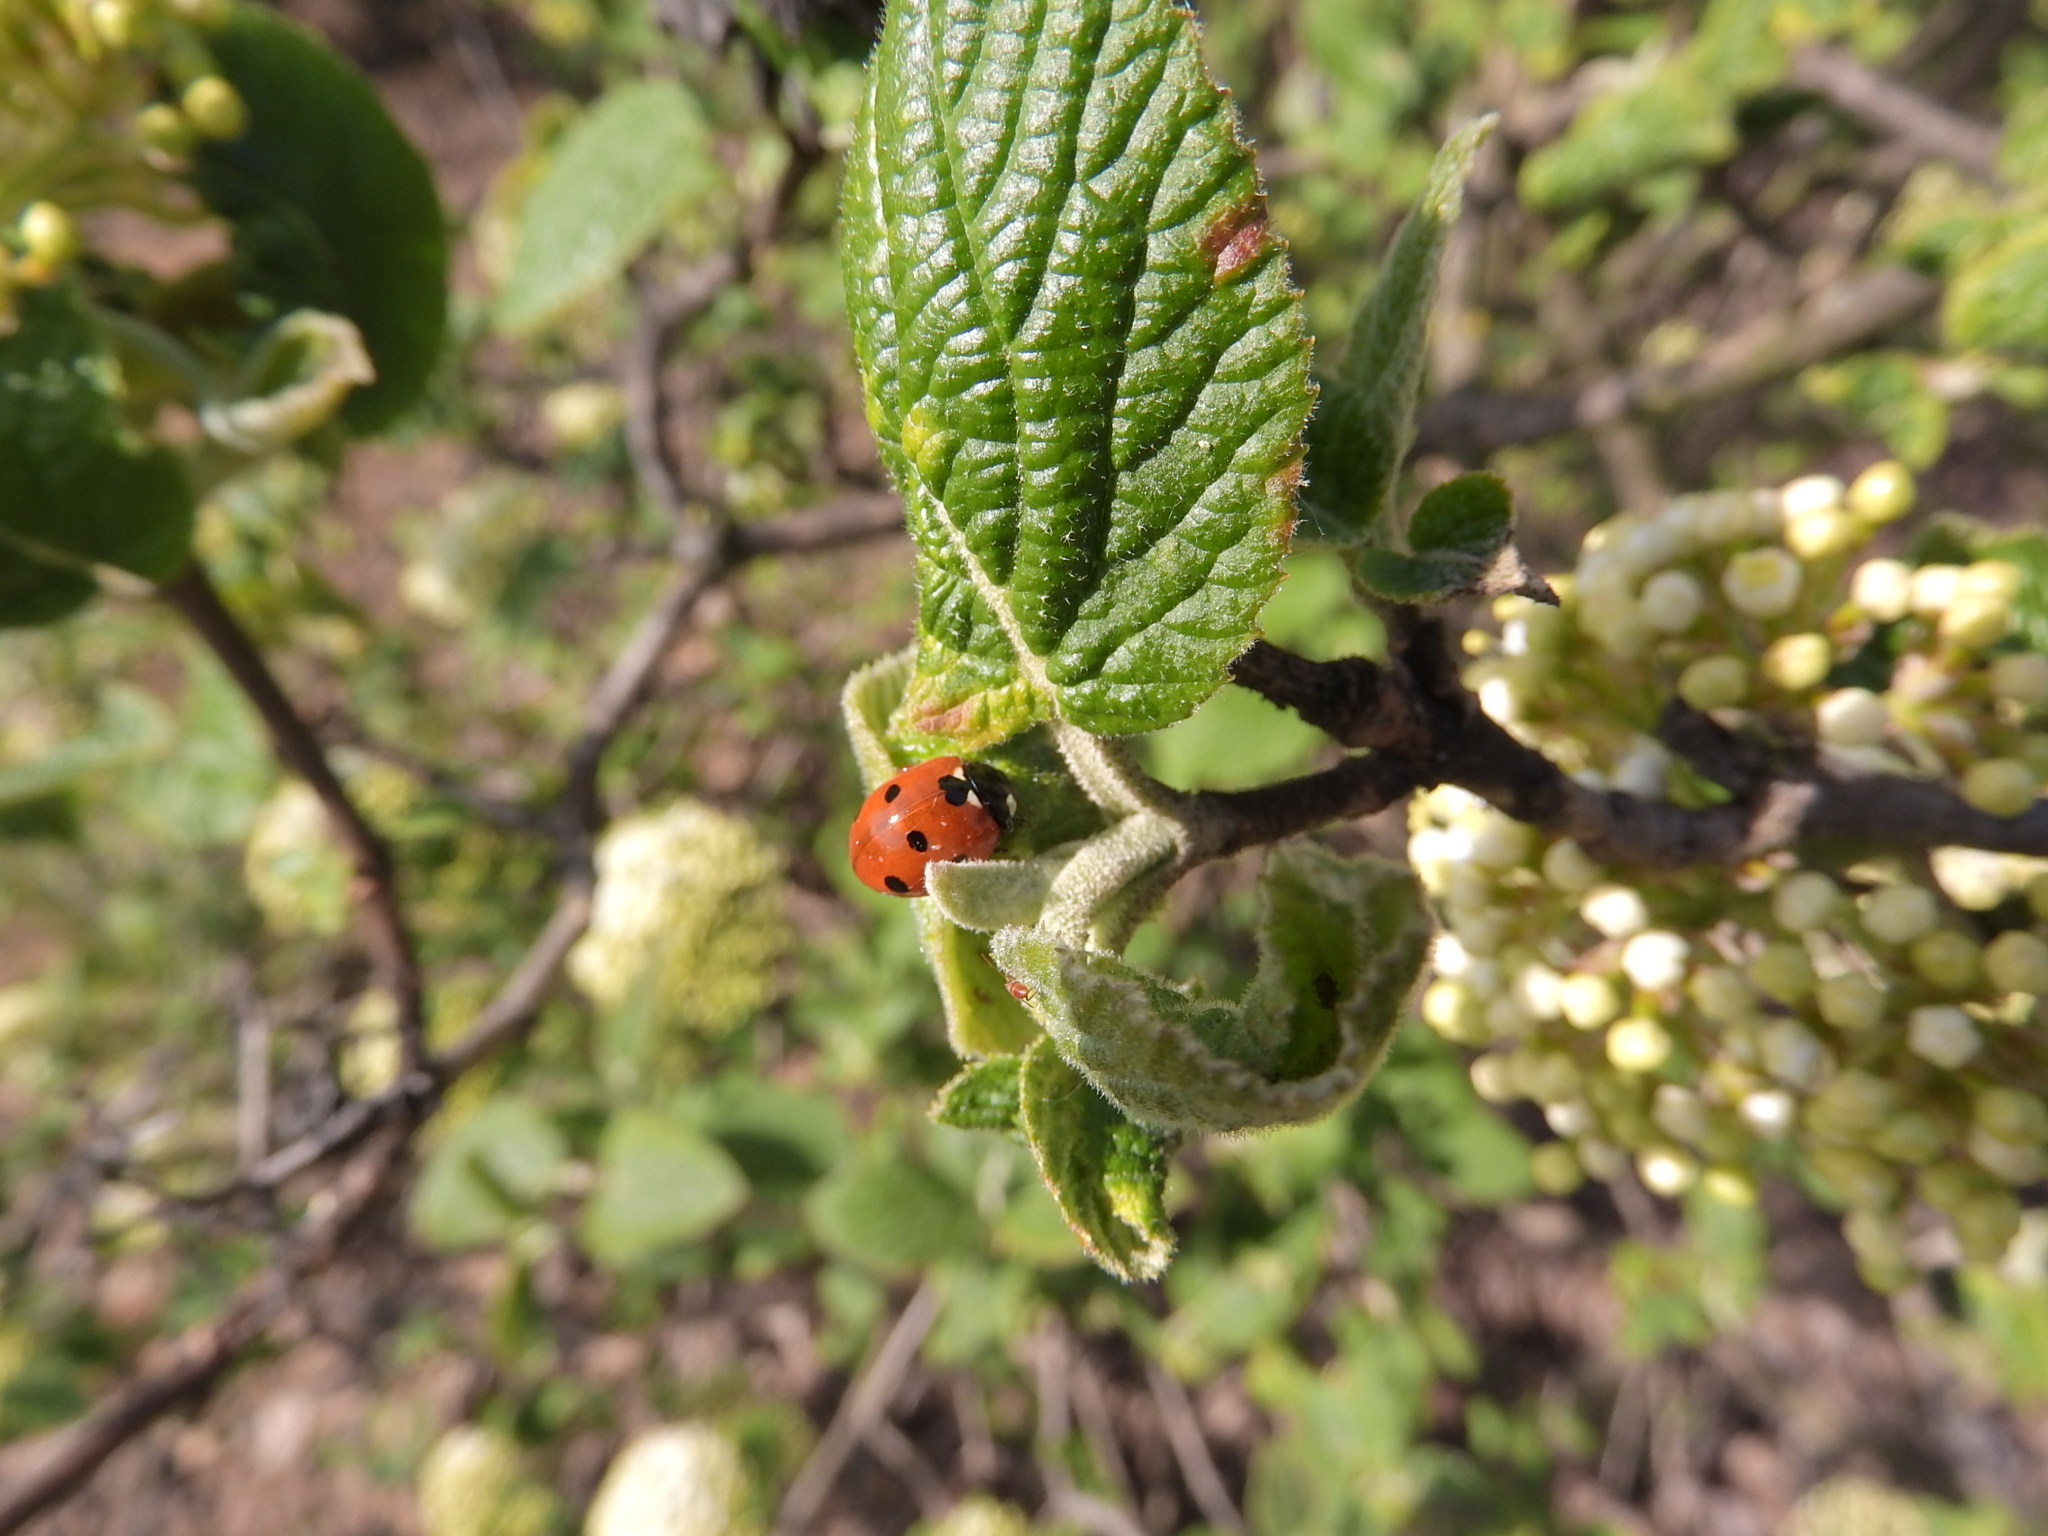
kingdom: Animalia
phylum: Arthropoda
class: Insecta
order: Coleoptera
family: Coccinellidae
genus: Coccinella
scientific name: Coccinella septempunctata
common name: Sevenspotted lady beetle
